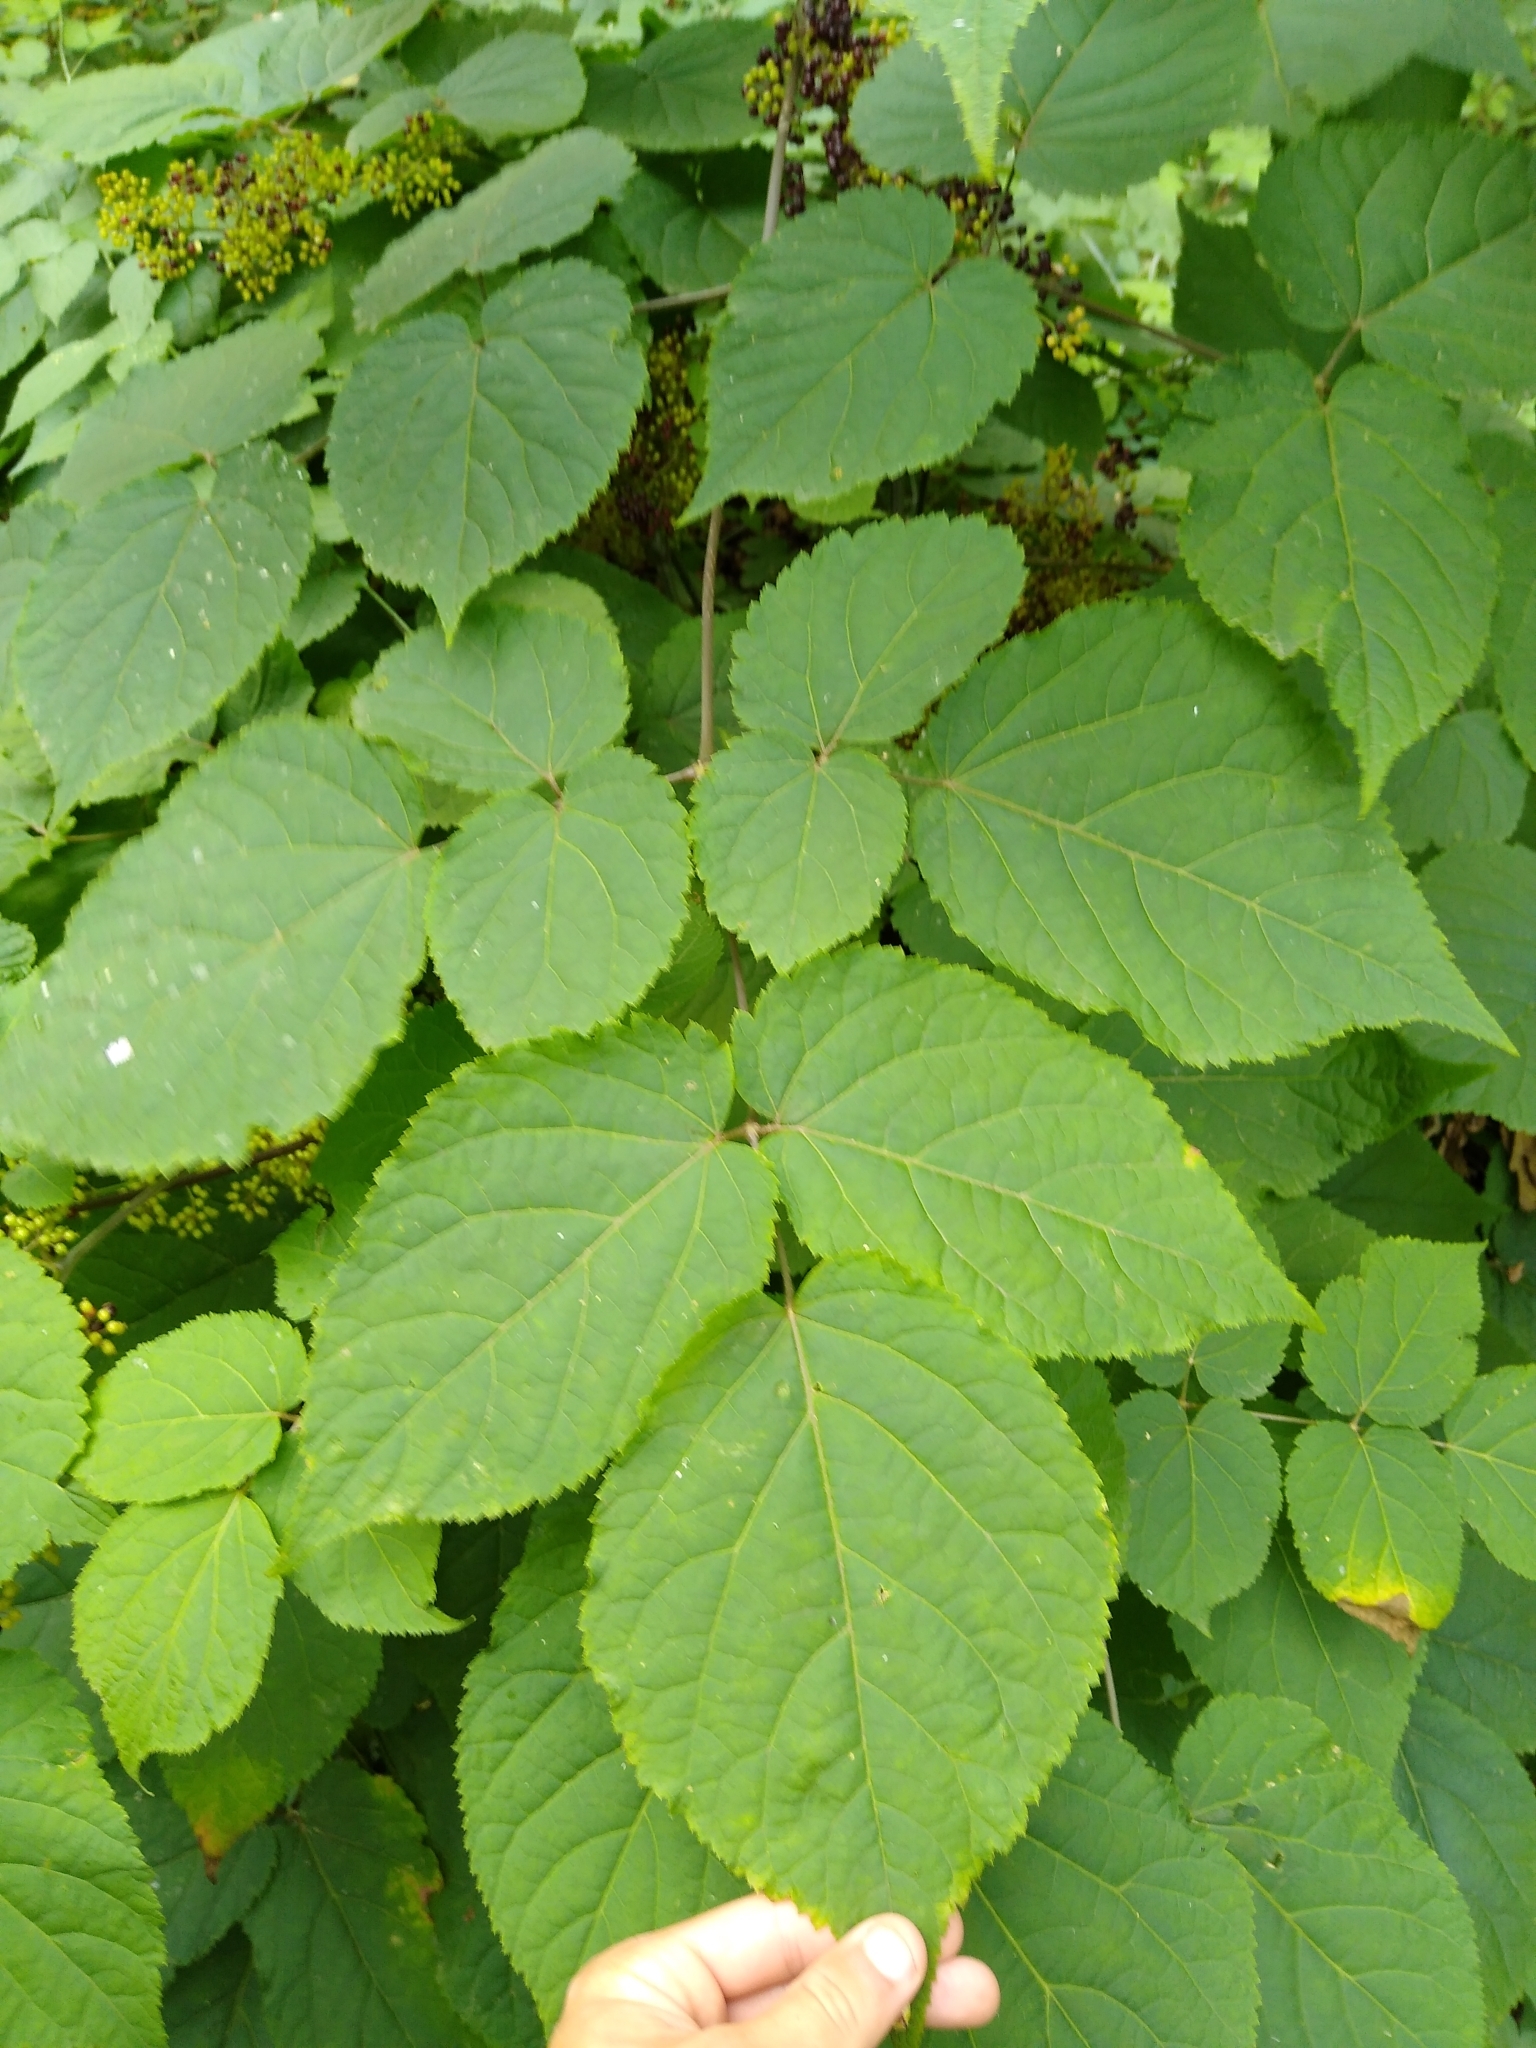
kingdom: Plantae
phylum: Tracheophyta
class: Magnoliopsida
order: Apiales
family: Araliaceae
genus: Aralia
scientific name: Aralia racemosa
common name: American-spikenard
